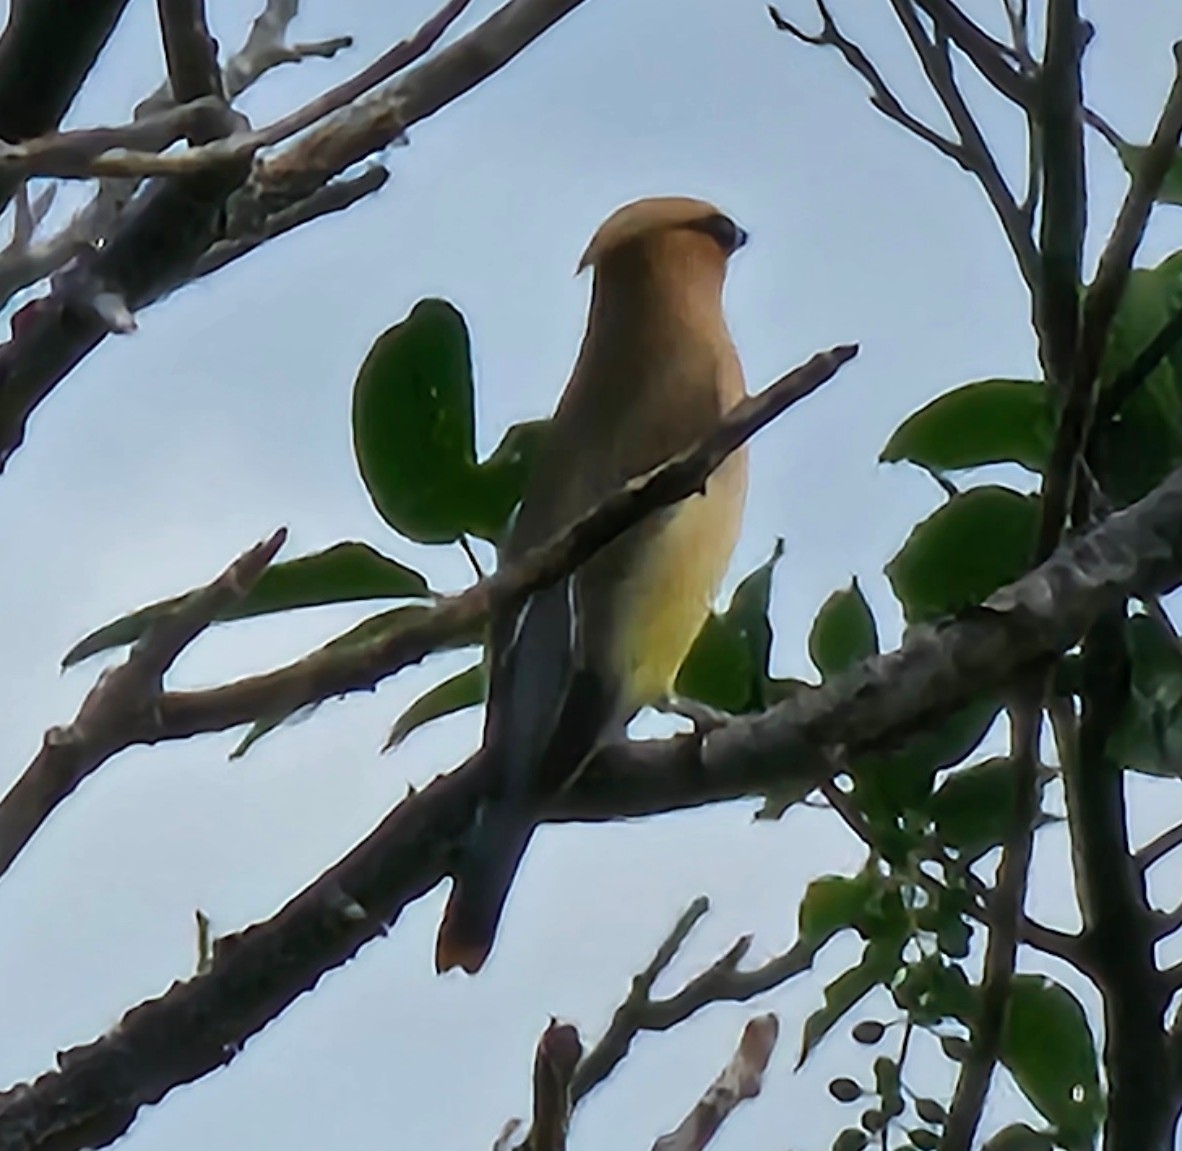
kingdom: Animalia
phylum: Chordata
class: Aves
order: Passeriformes
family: Bombycillidae
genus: Bombycilla
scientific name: Bombycilla cedrorum
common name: Cedar waxwing
